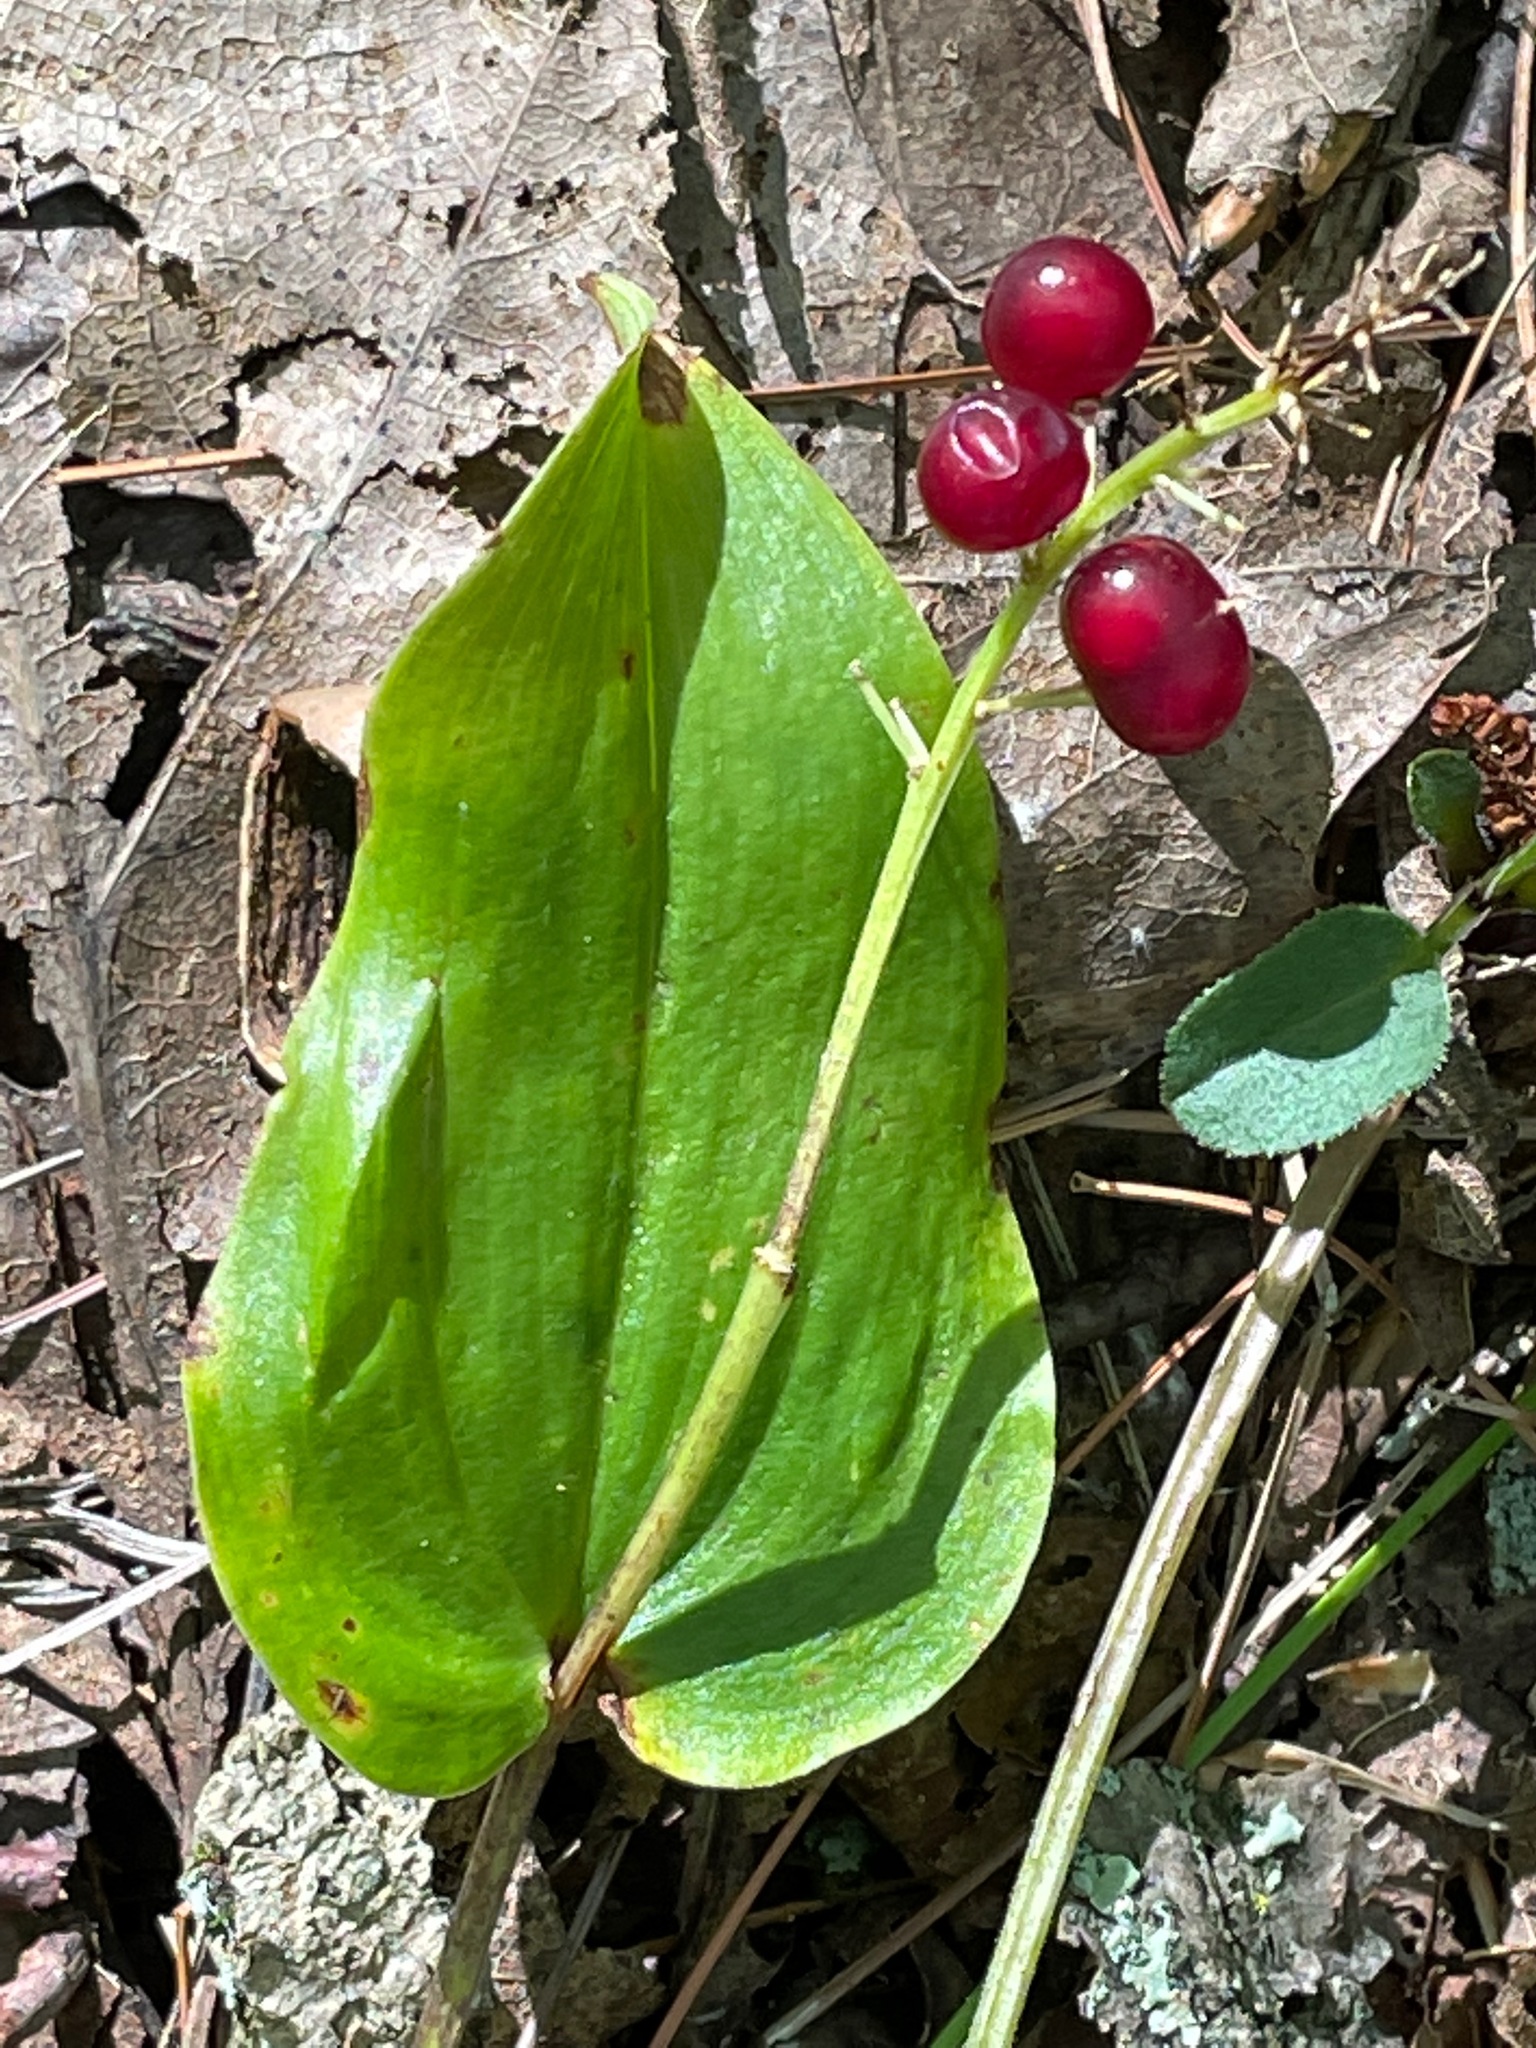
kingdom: Plantae
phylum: Tracheophyta
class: Liliopsida
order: Asparagales
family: Asparagaceae
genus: Maianthemum
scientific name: Maianthemum canadense
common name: False lily-of-the-valley
